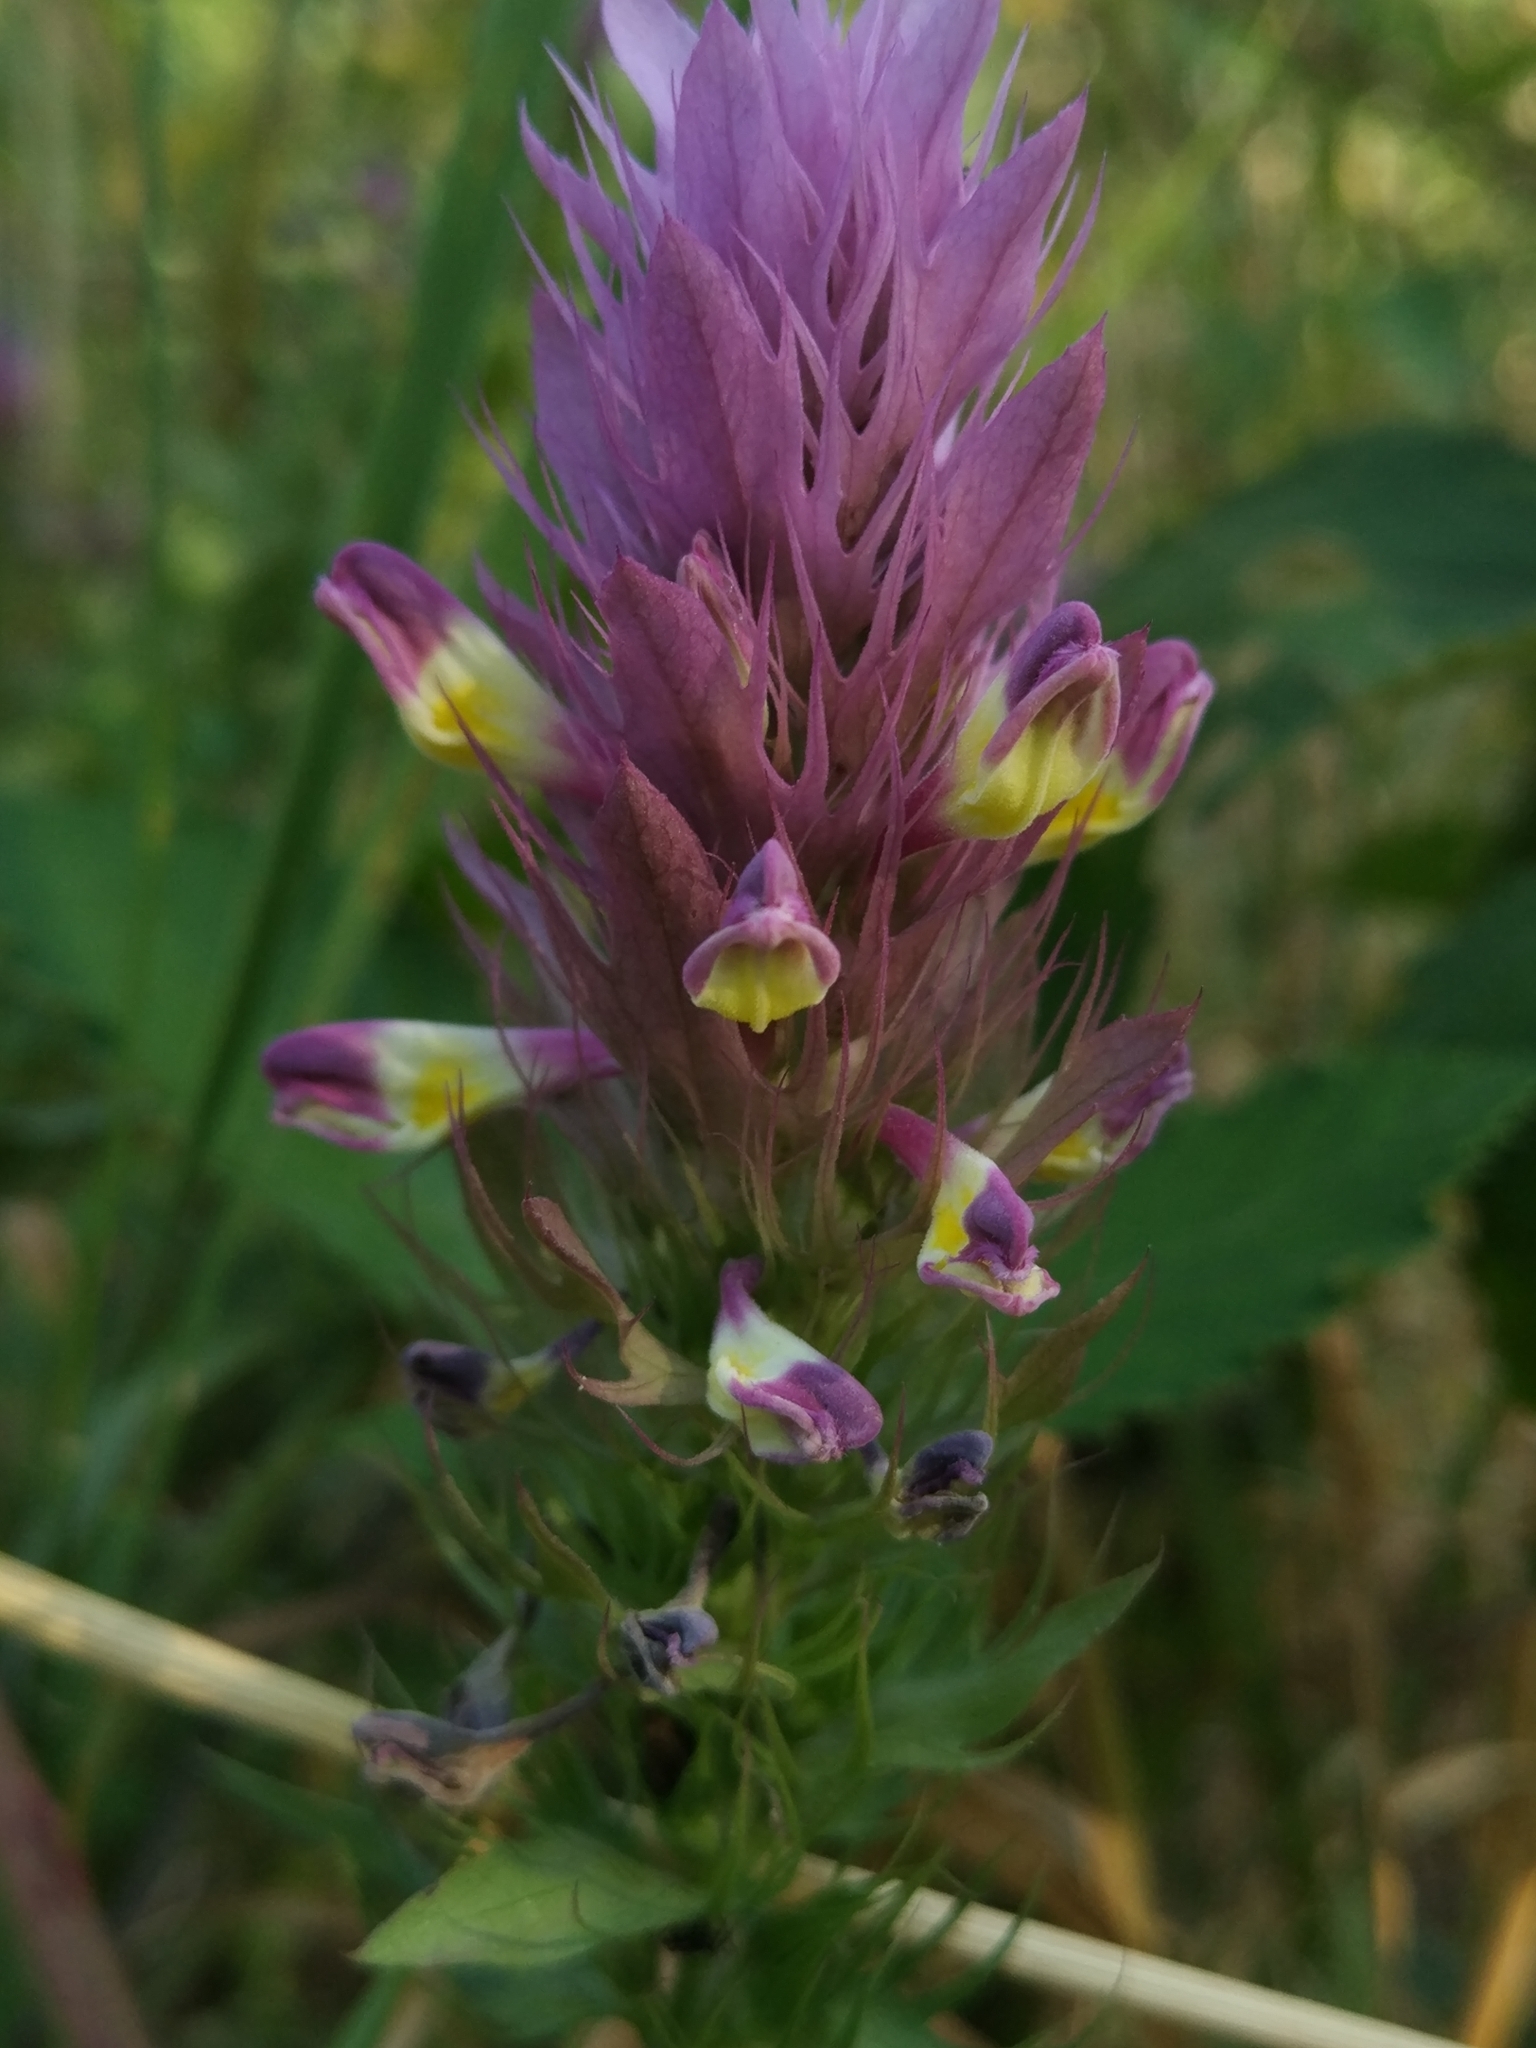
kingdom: Plantae
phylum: Tracheophyta
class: Magnoliopsida
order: Lamiales
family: Orobanchaceae
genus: Melampyrum
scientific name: Melampyrum arvense
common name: Field cow-wheat
